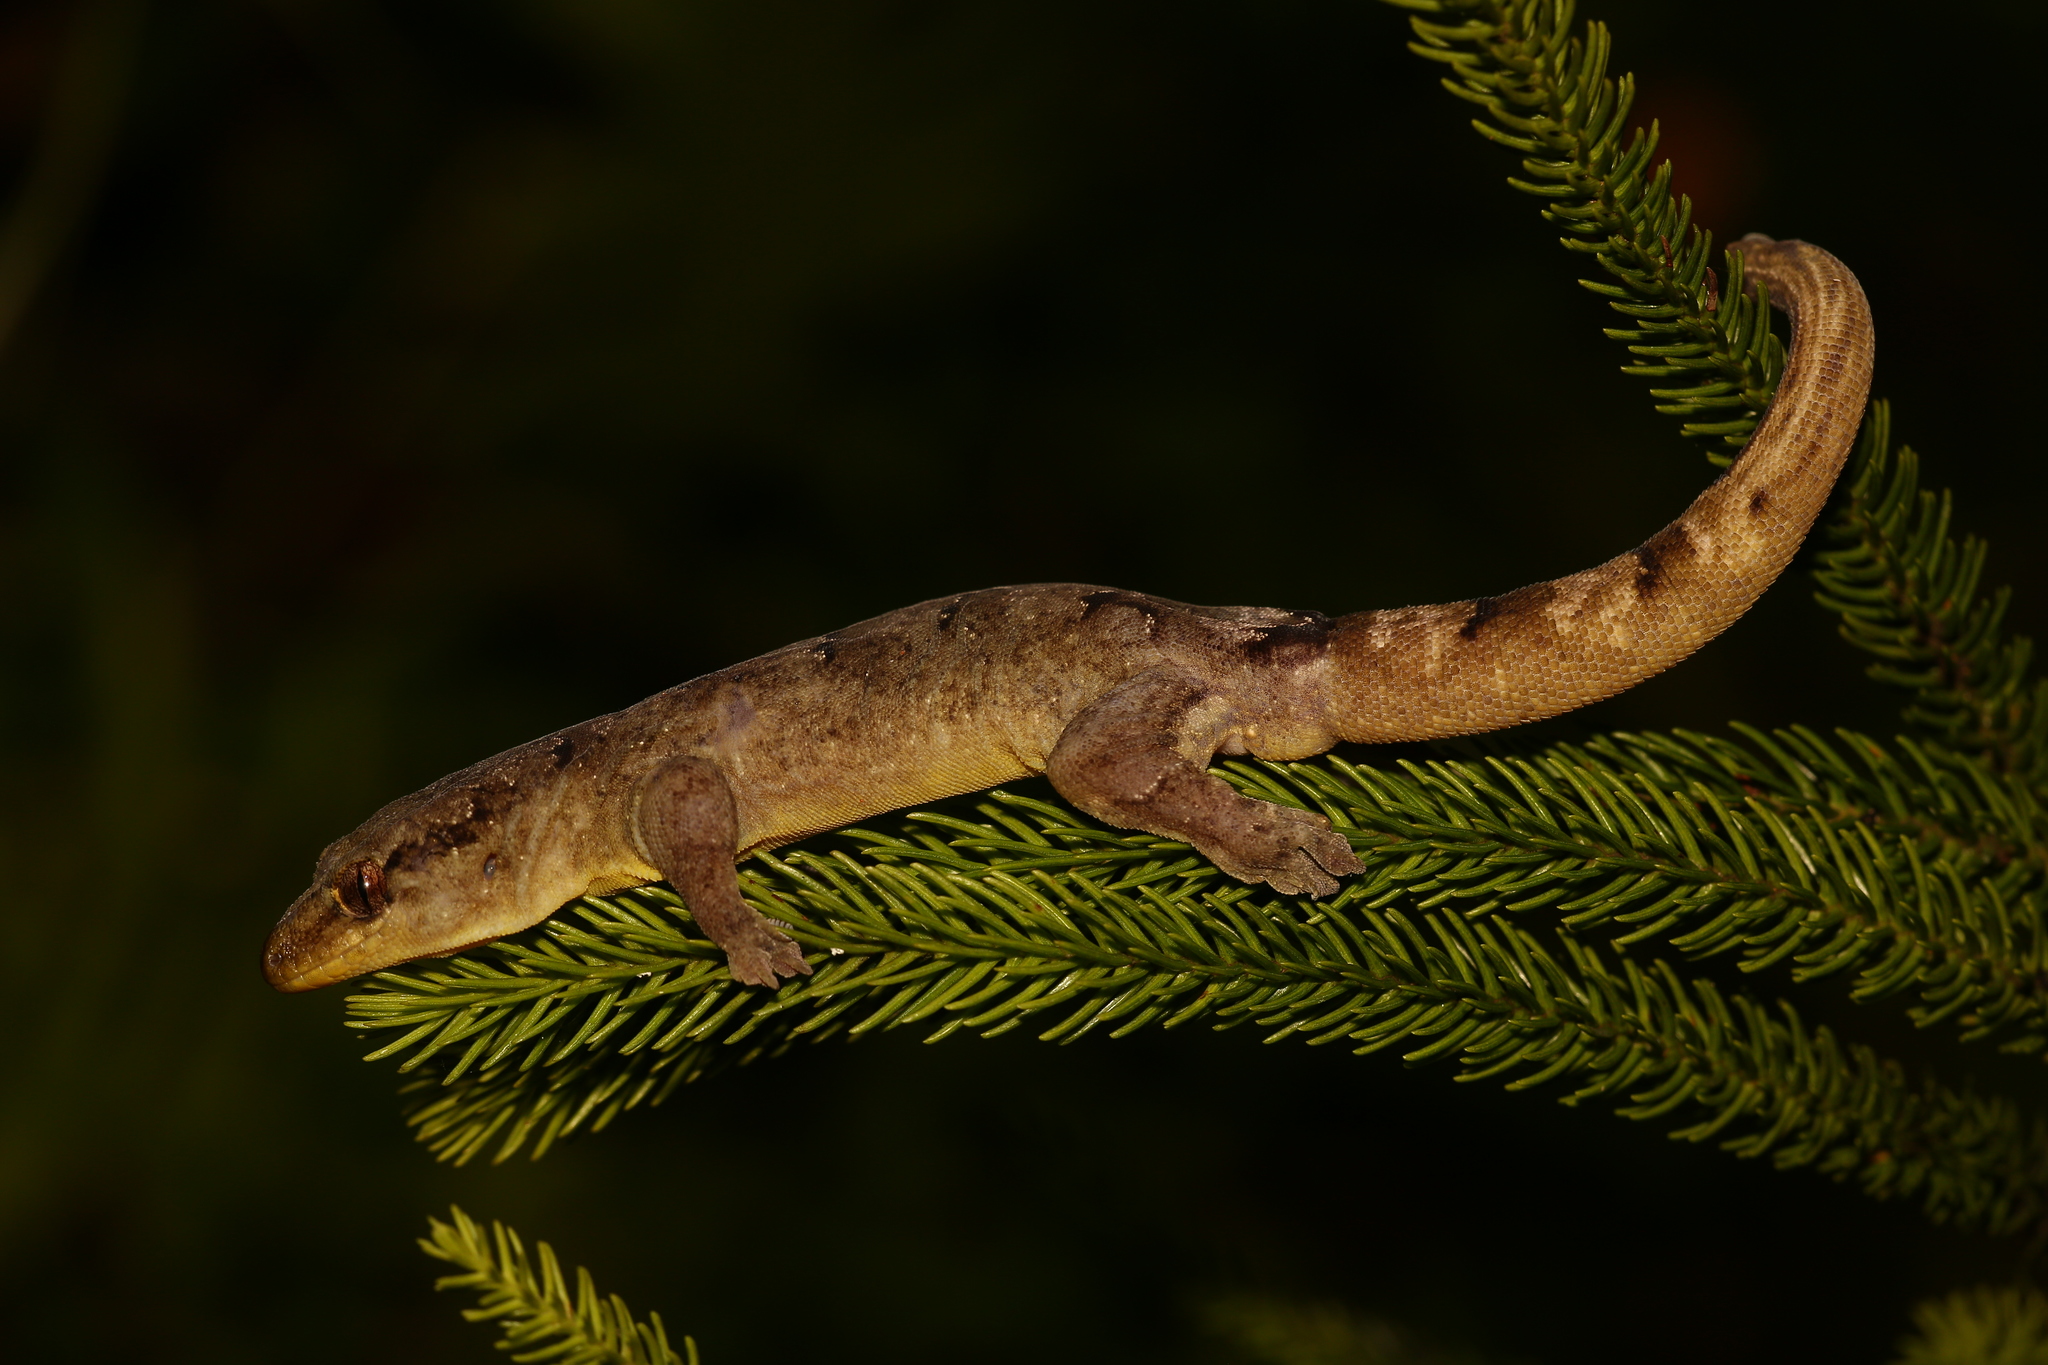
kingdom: Animalia
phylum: Chordata
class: Squamata
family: Diplodactylidae
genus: Bavayia
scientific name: Bavayia robusta
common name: Robust forest bavayia
